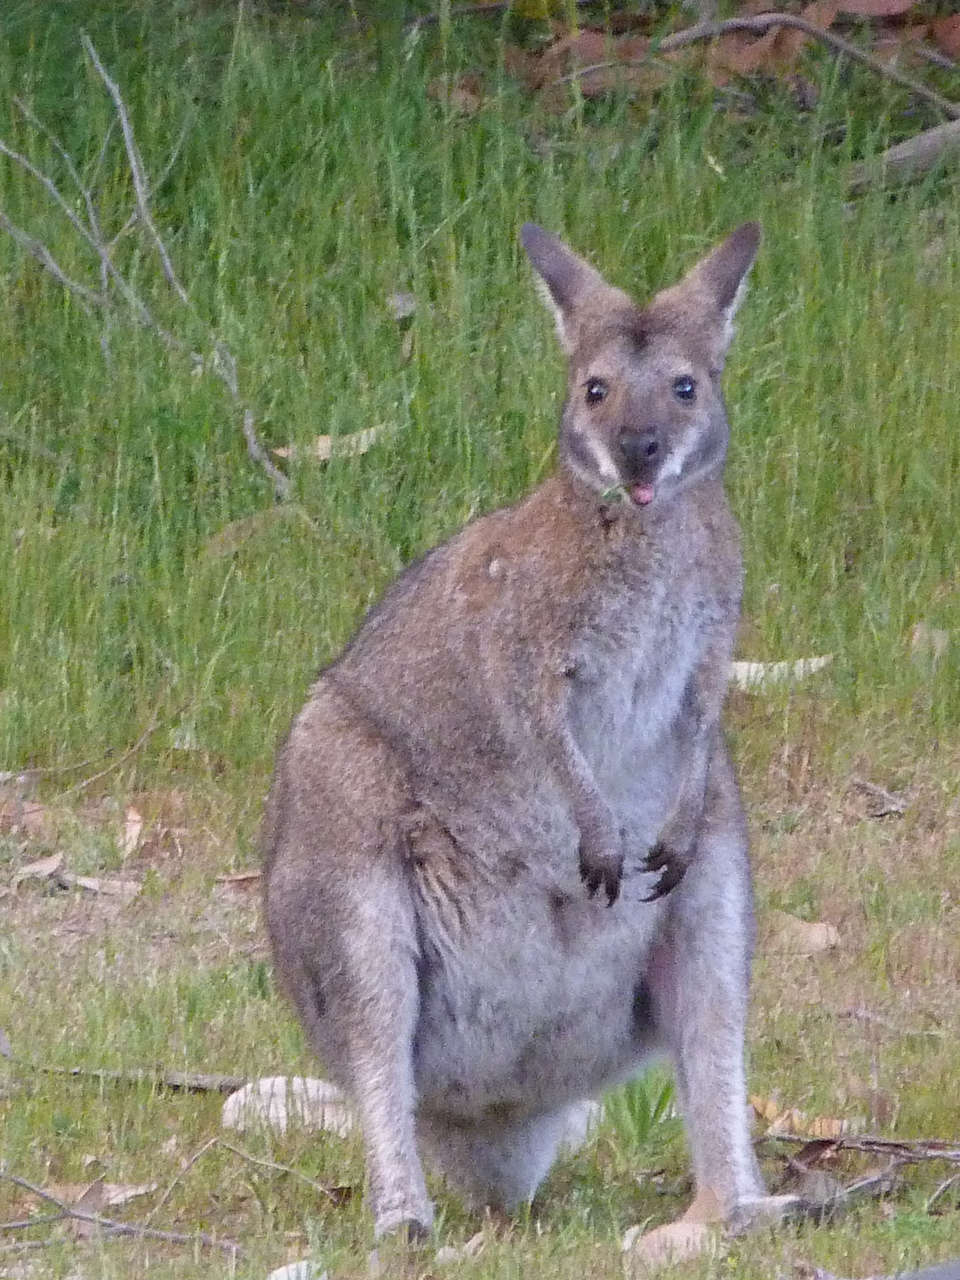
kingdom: Animalia
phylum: Chordata
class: Mammalia
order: Diprotodontia
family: Macropodidae
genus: Notamacropus
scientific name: Notamacropus rufogriseus
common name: Red-necked wallaby
